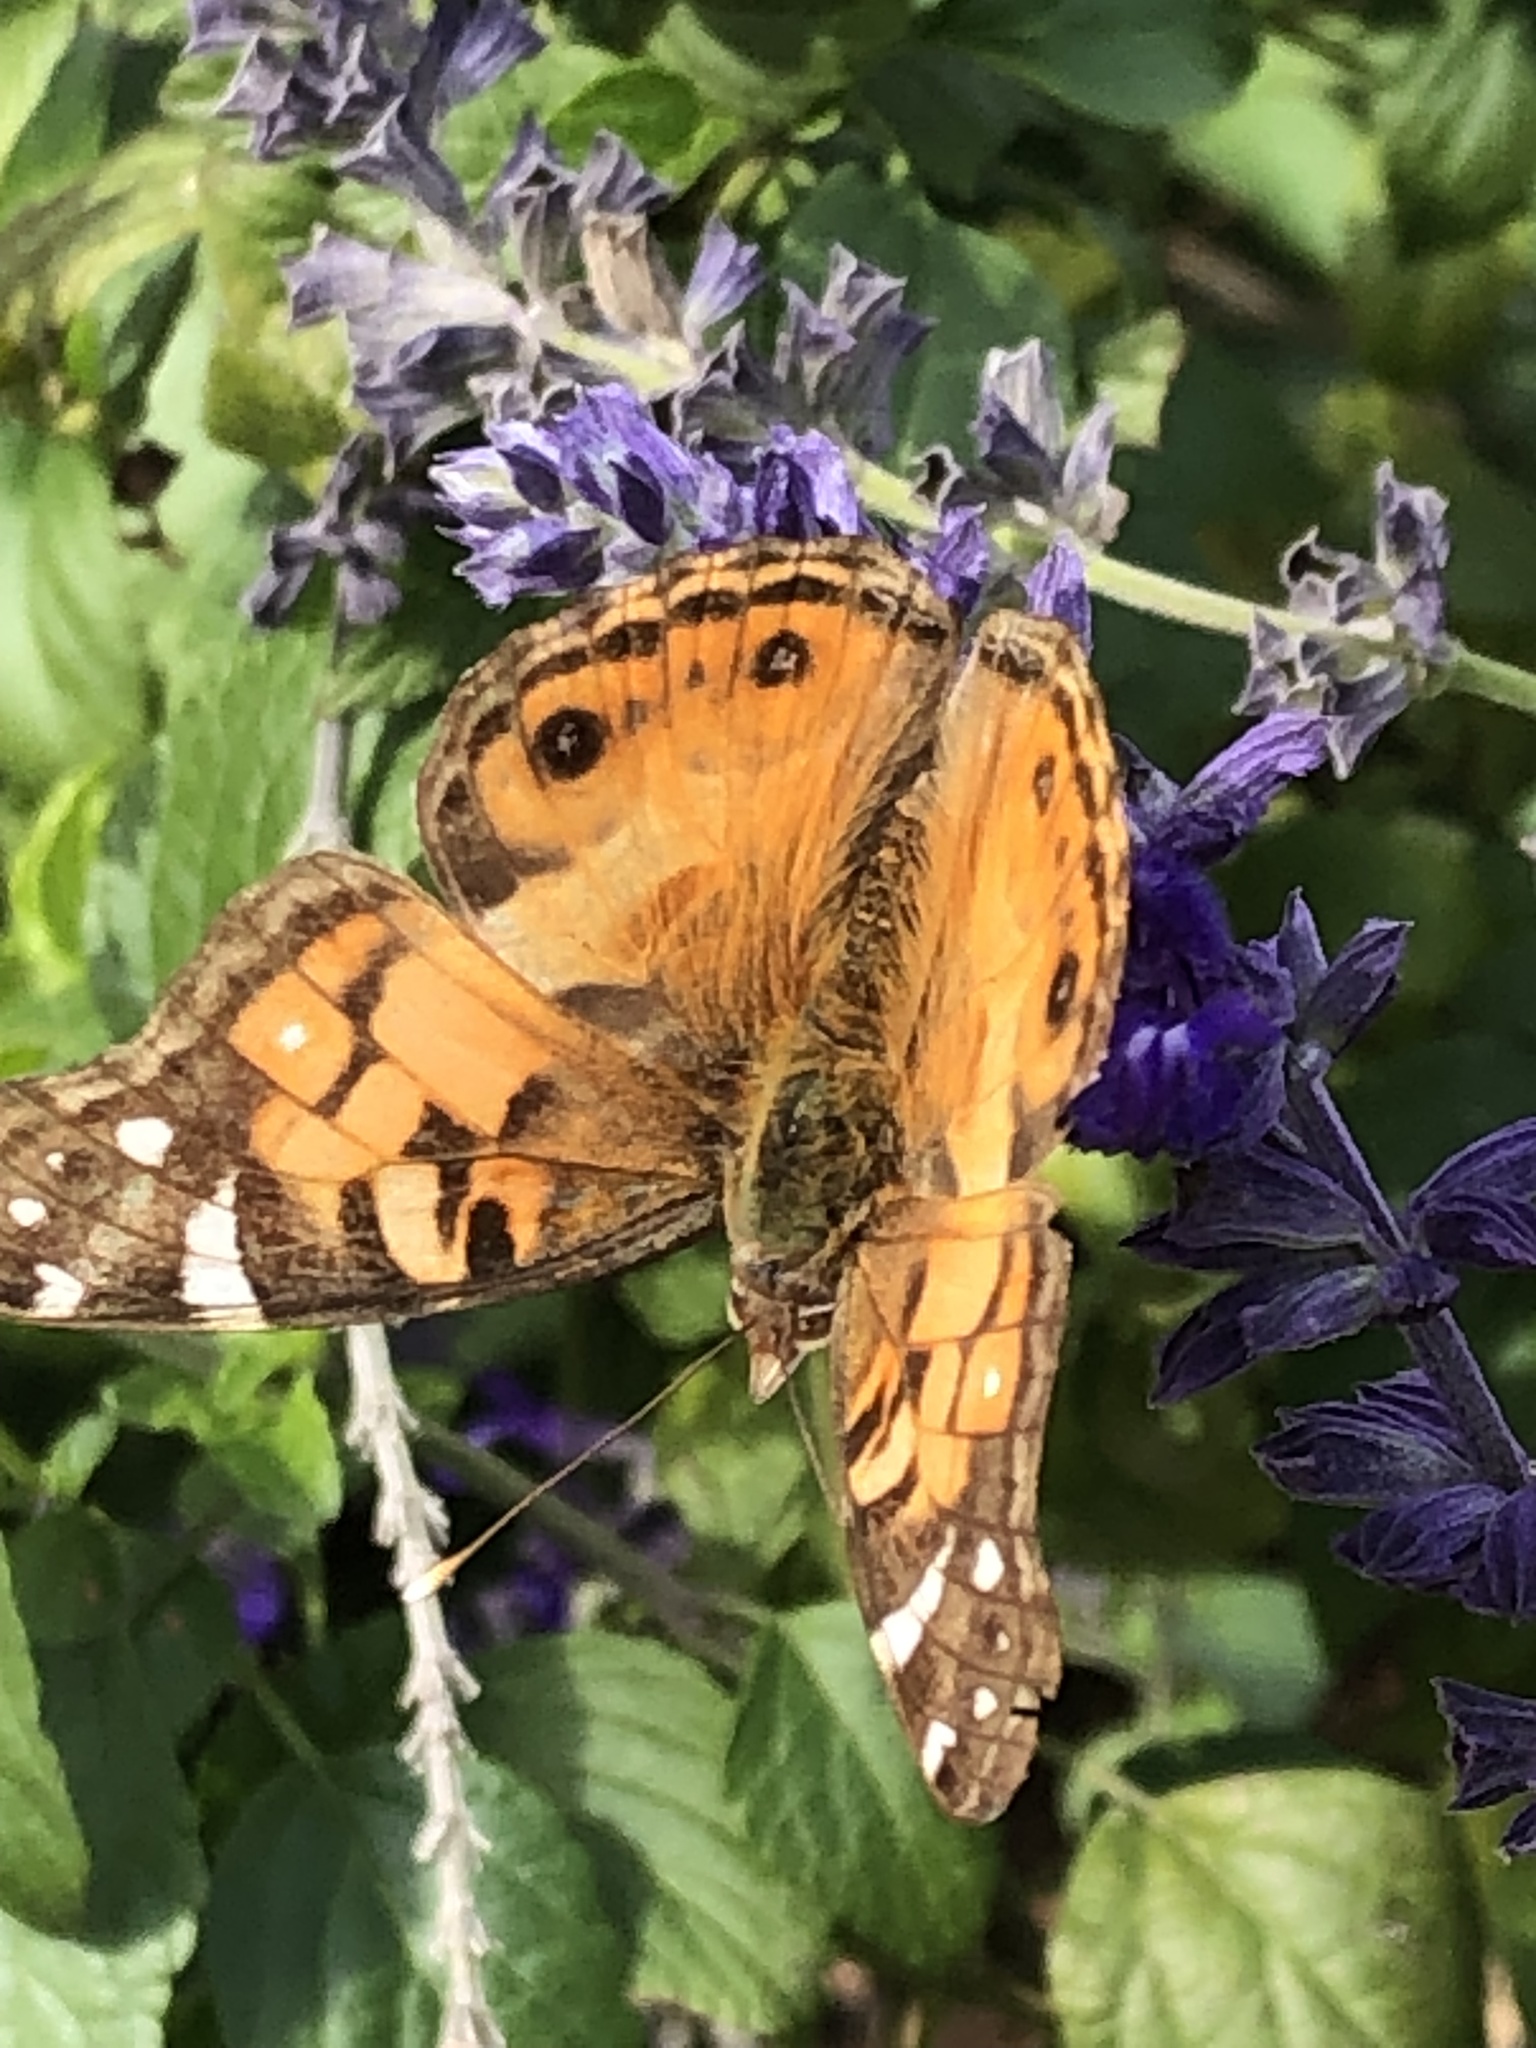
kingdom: Animalia
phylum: Arthropoda
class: Insecta
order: Lepidoptera
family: Nymphalidae
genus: Vanessa
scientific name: Vanessa virginiensis
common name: American lady
